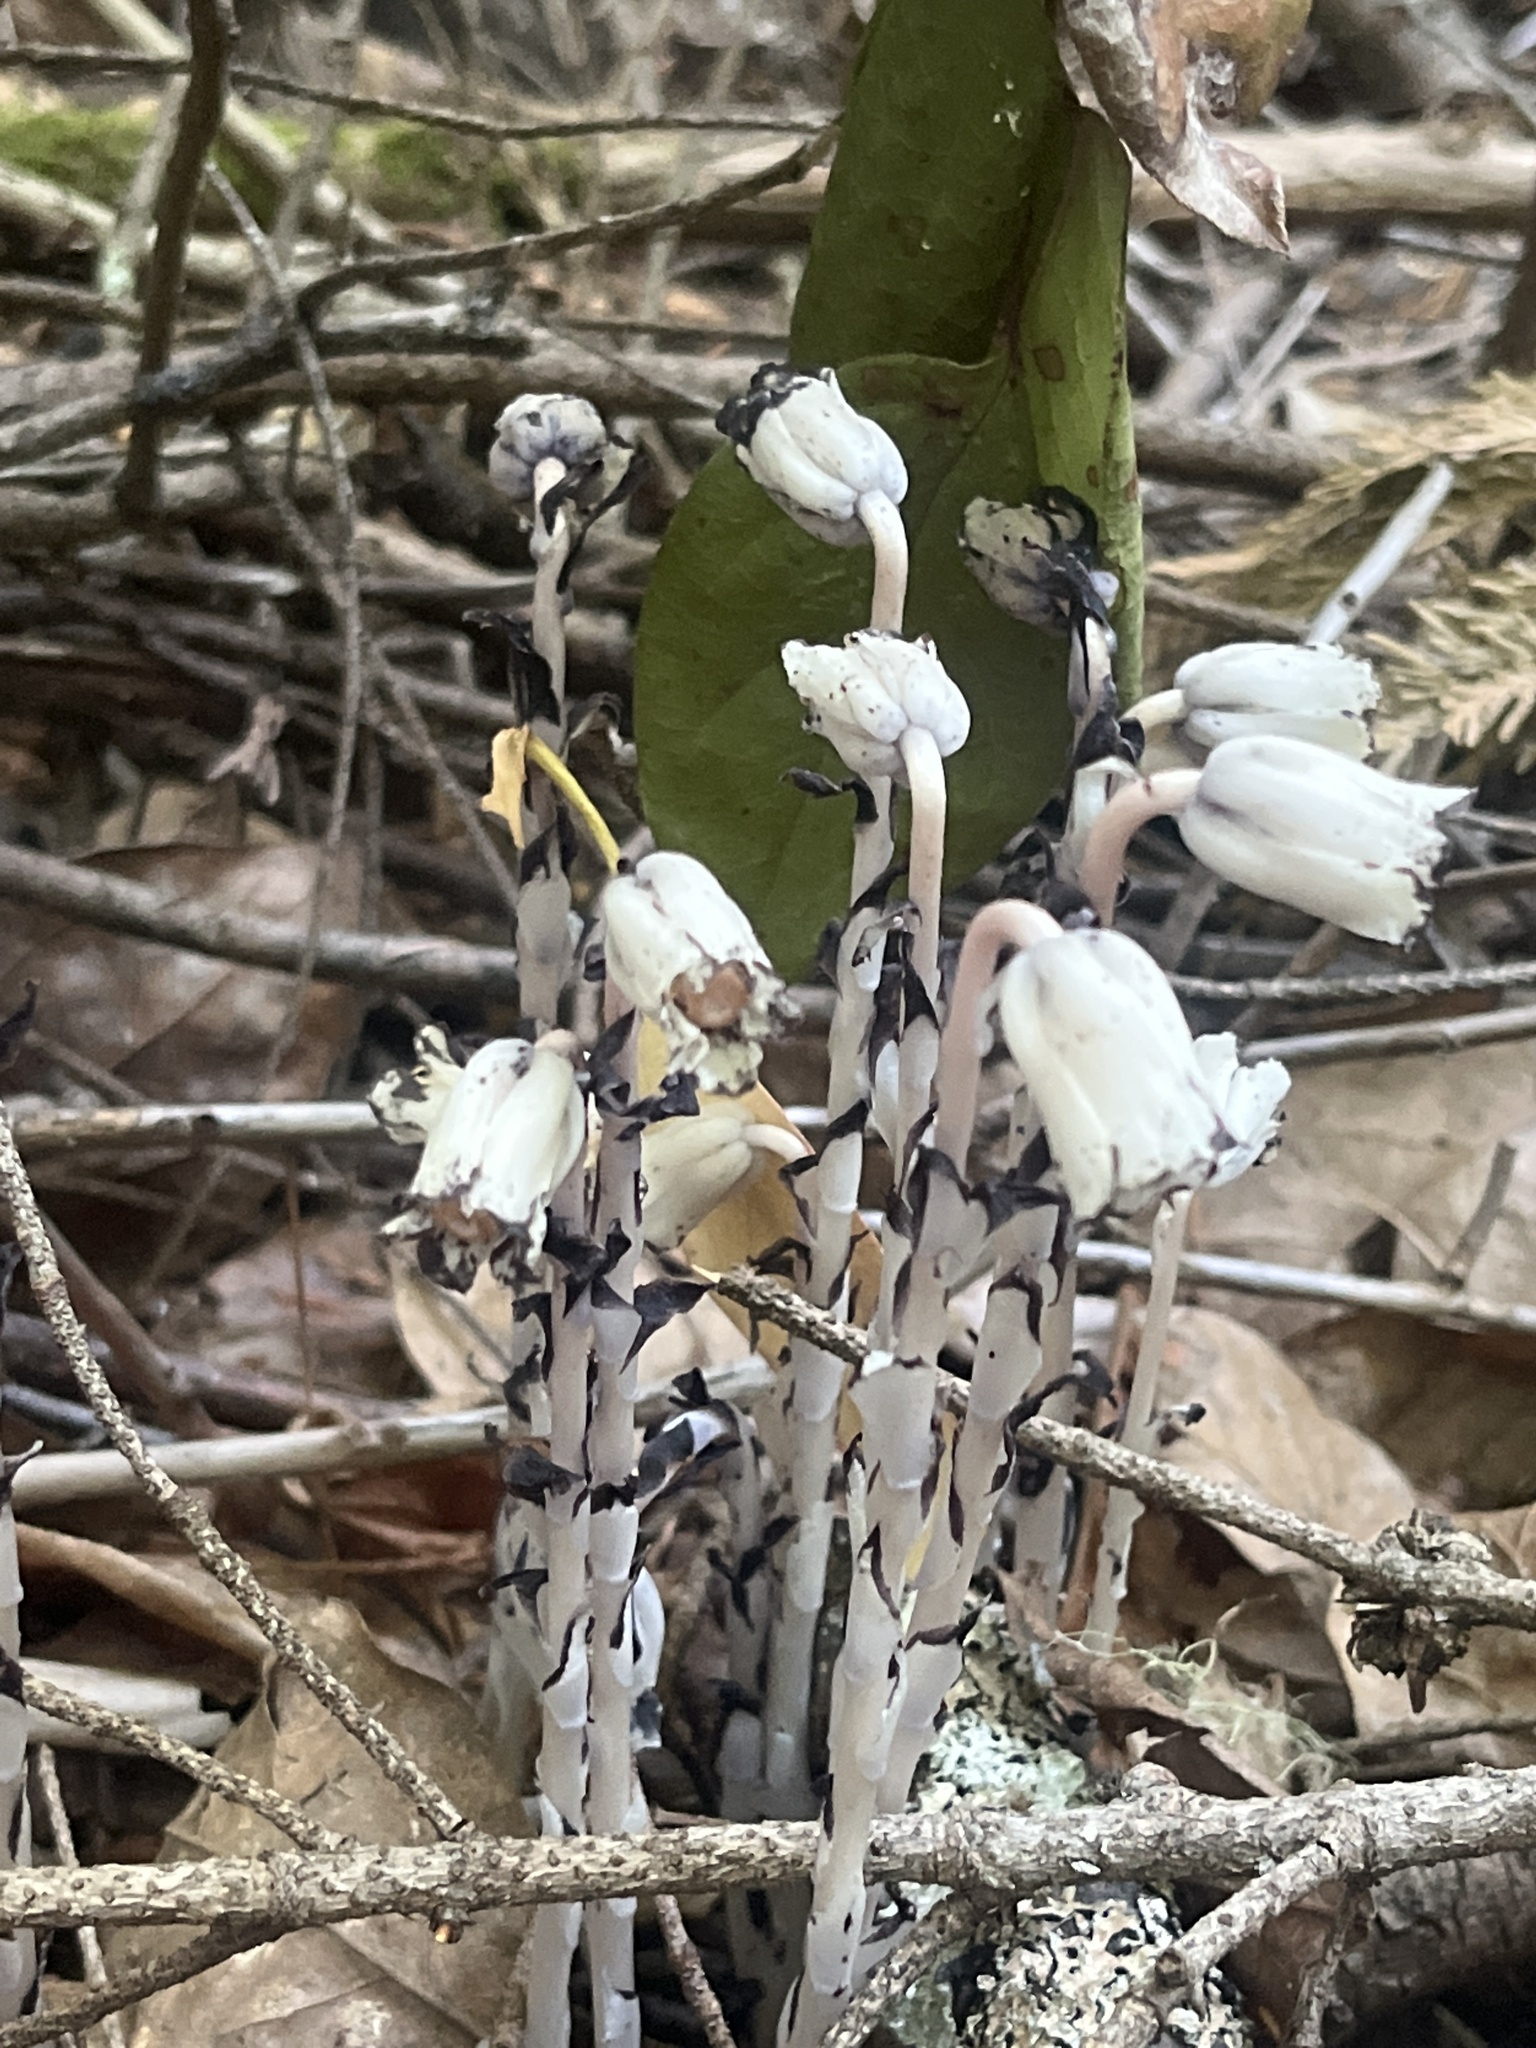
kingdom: Plantae
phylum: Tracheophyta
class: Magnoliopsida
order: Ericales
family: Ericaceae
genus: Monotropa
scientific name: Monotropa uniflora
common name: Convulsion root
